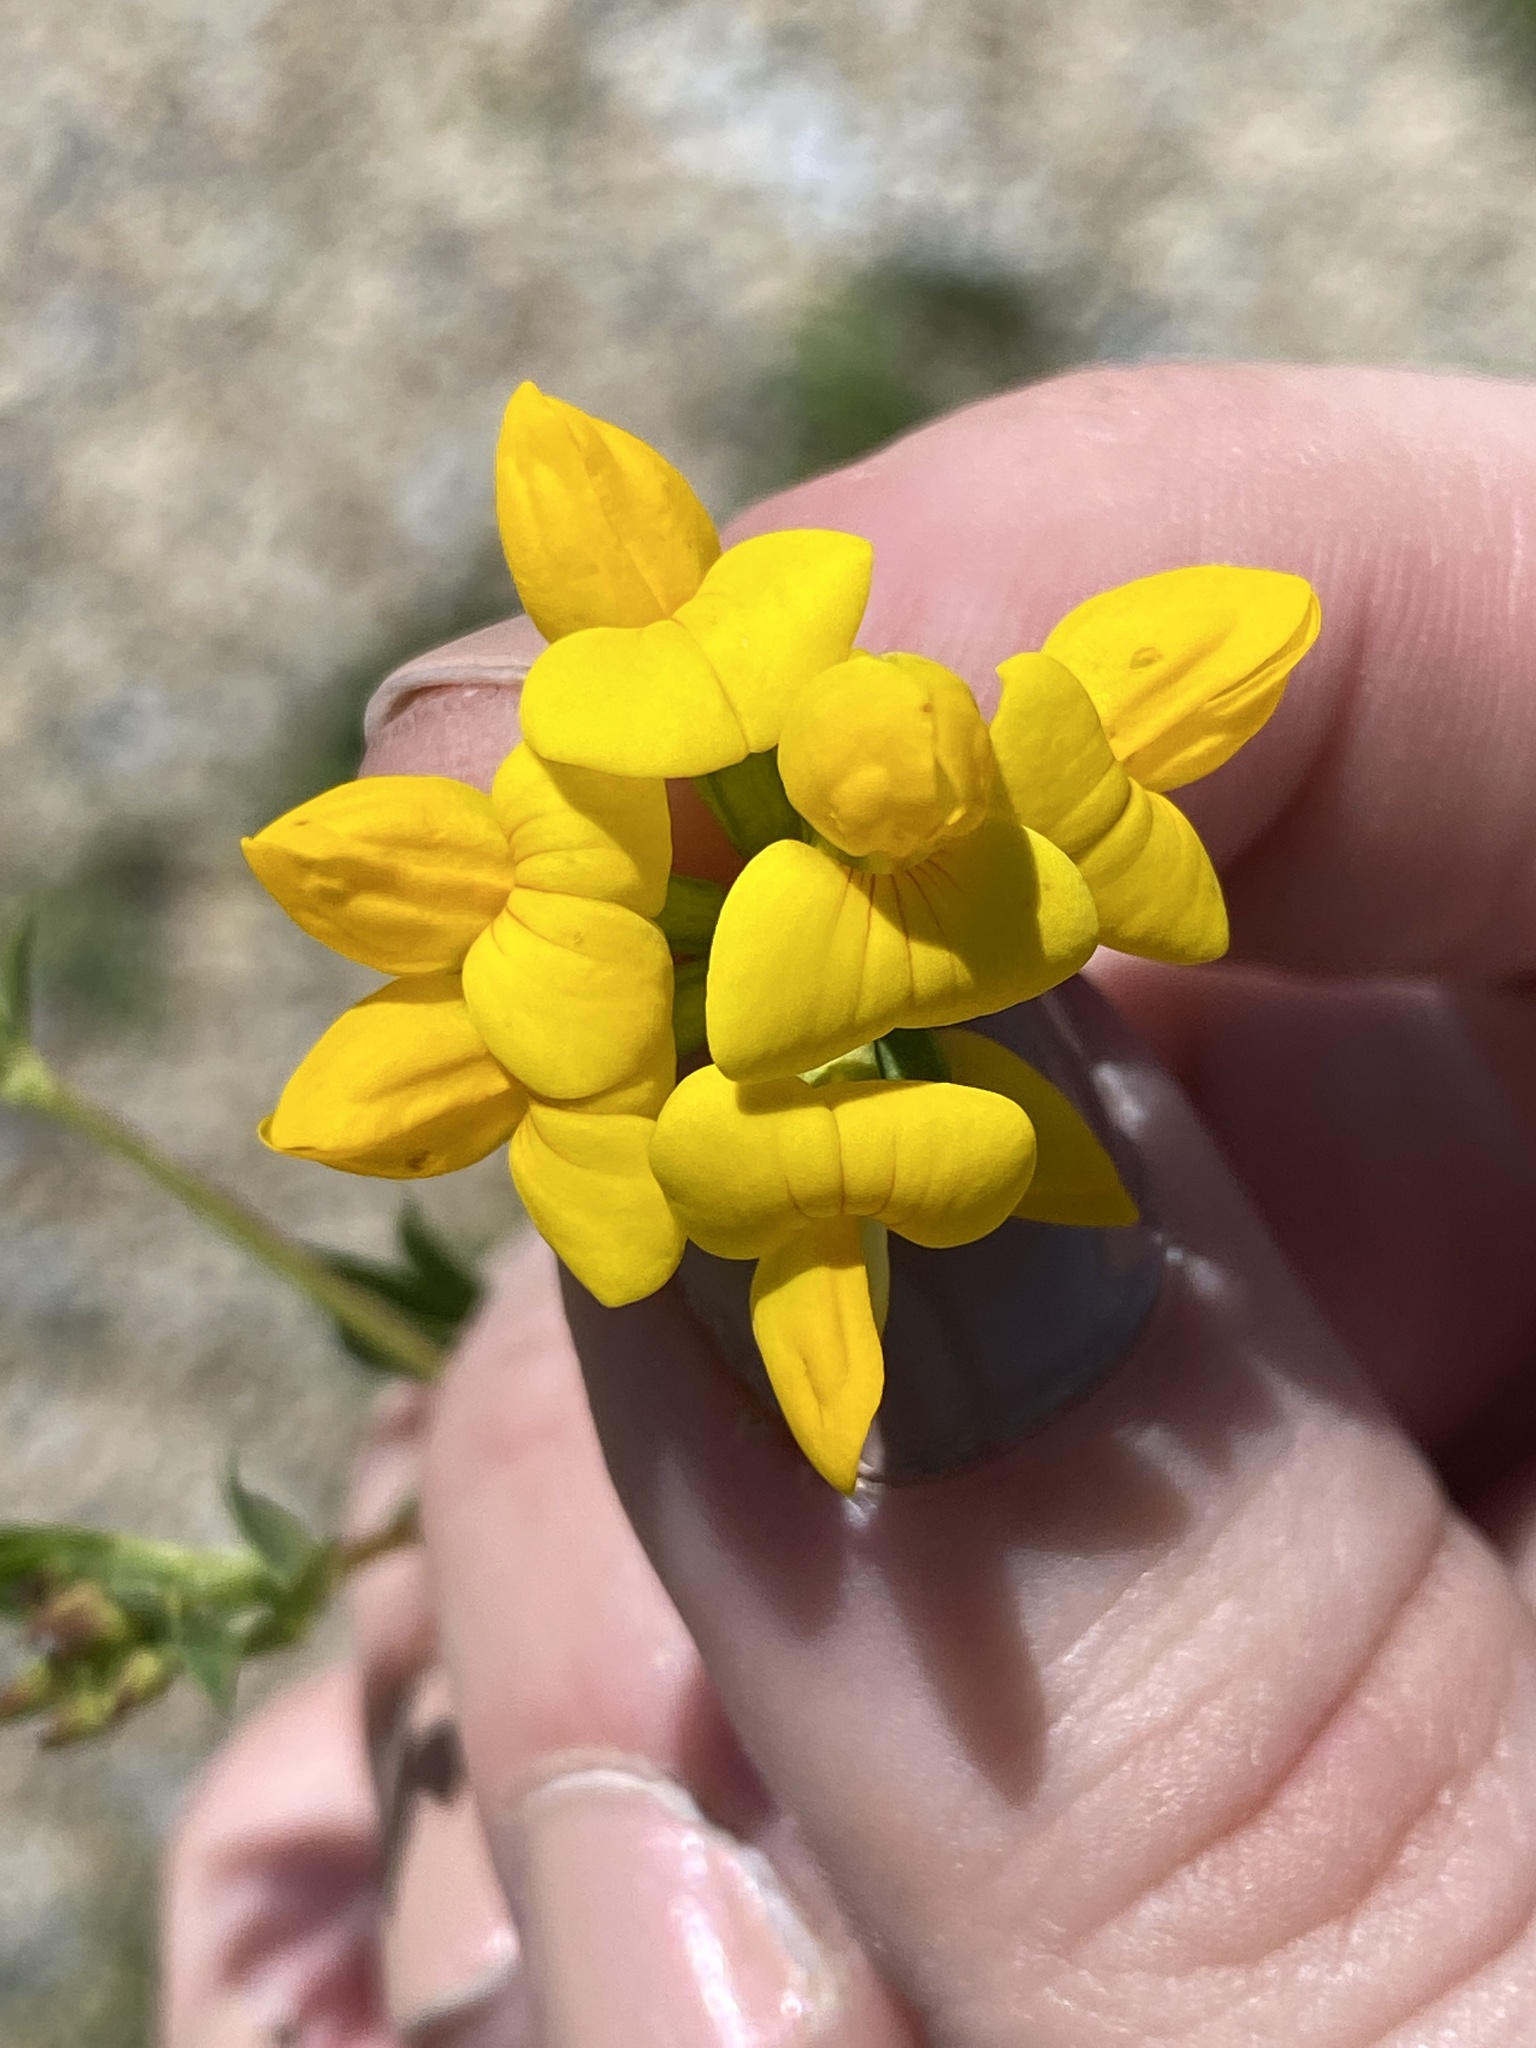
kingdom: Plantae
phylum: Tracheophyta
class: Magnoliopsida
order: Fabales
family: Fabaceae
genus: Lotus
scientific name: Lotus corniculatus
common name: Common bird's-foot-trefoil
